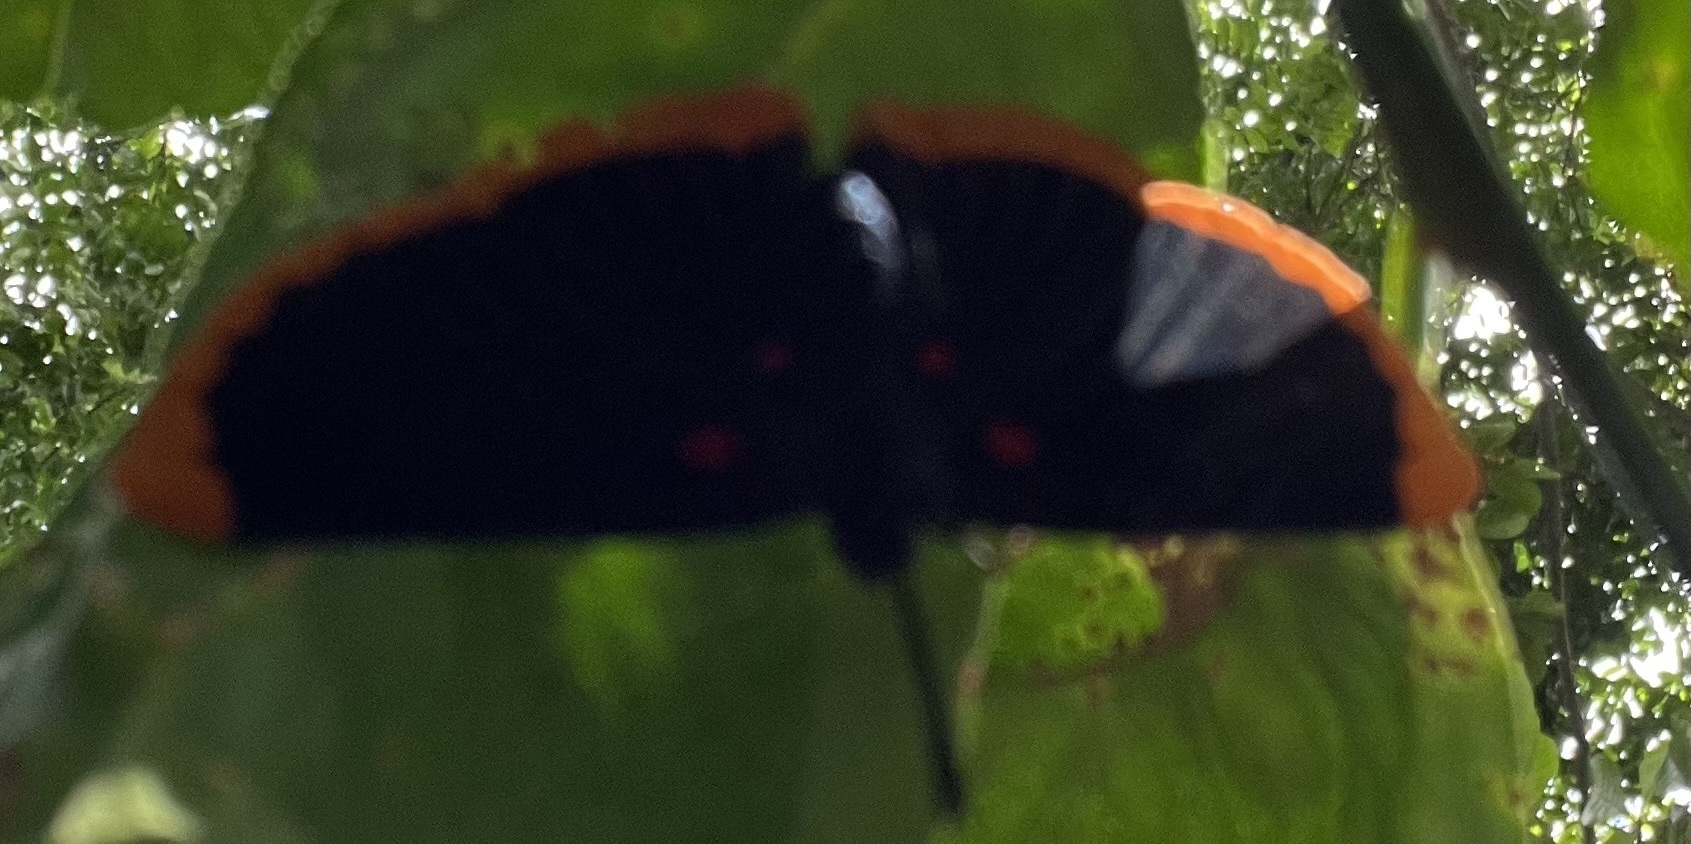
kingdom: Animalia
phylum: Arthropoda
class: Insecta
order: Lepidoptera
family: Lycaenidae
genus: Melanis
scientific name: Melanis smithiae
